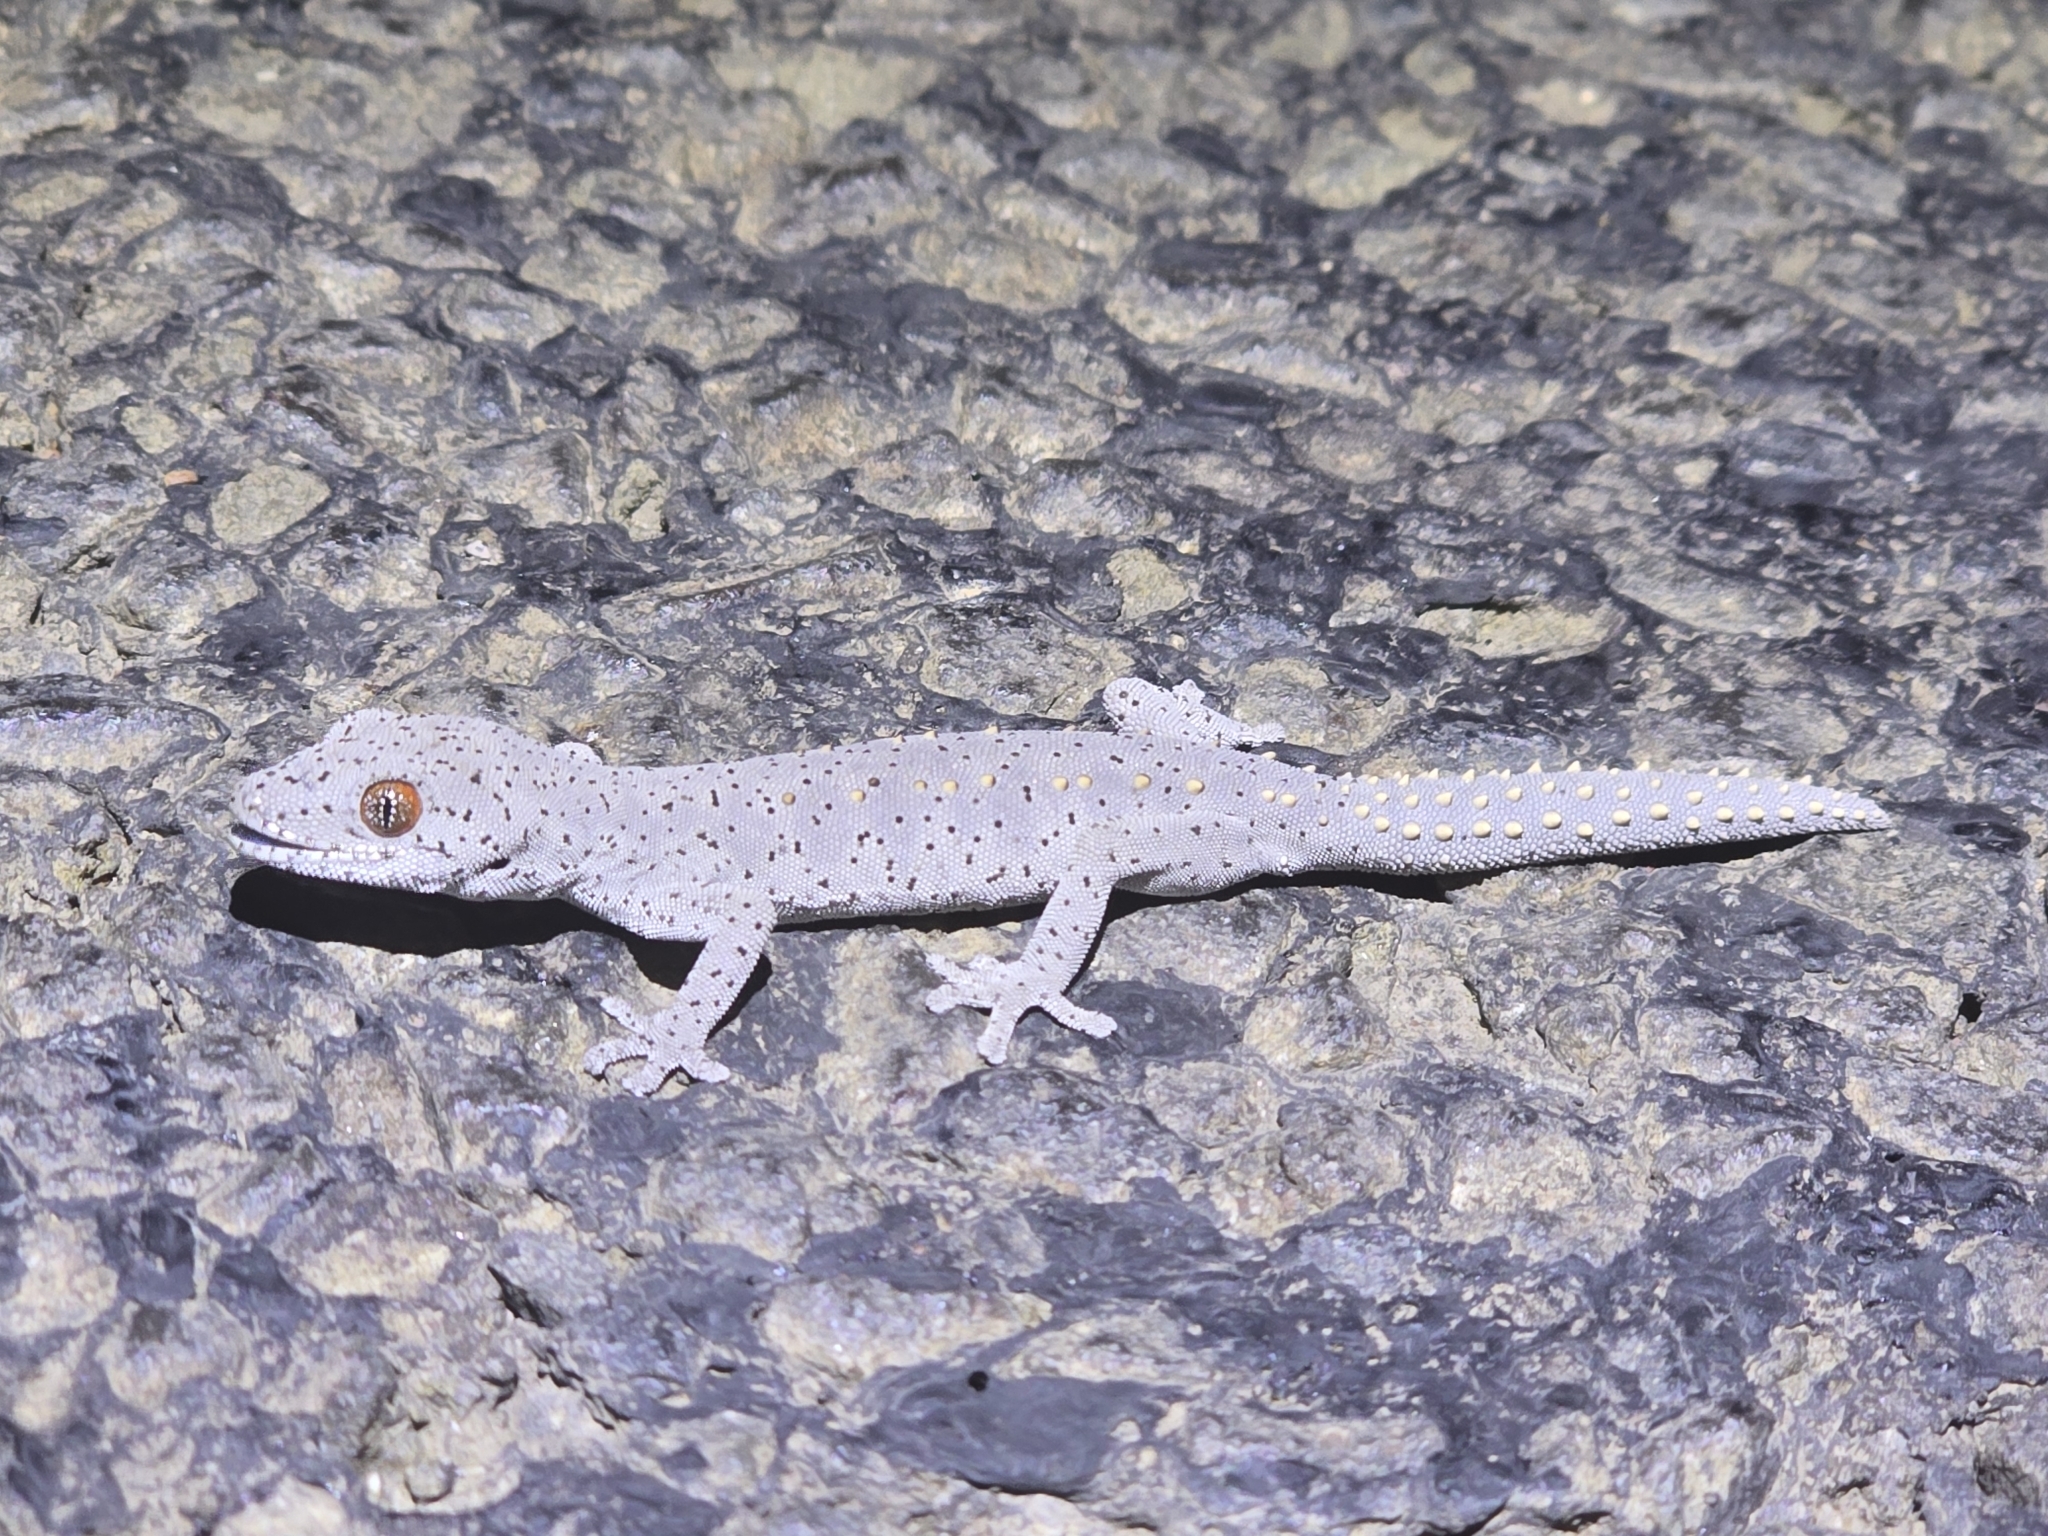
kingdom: Animalia
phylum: Chordata
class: Squamata
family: Diplodactylidae
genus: Strophurus
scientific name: Strophurus williamsi
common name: Eastern spiny-tailed gecko
